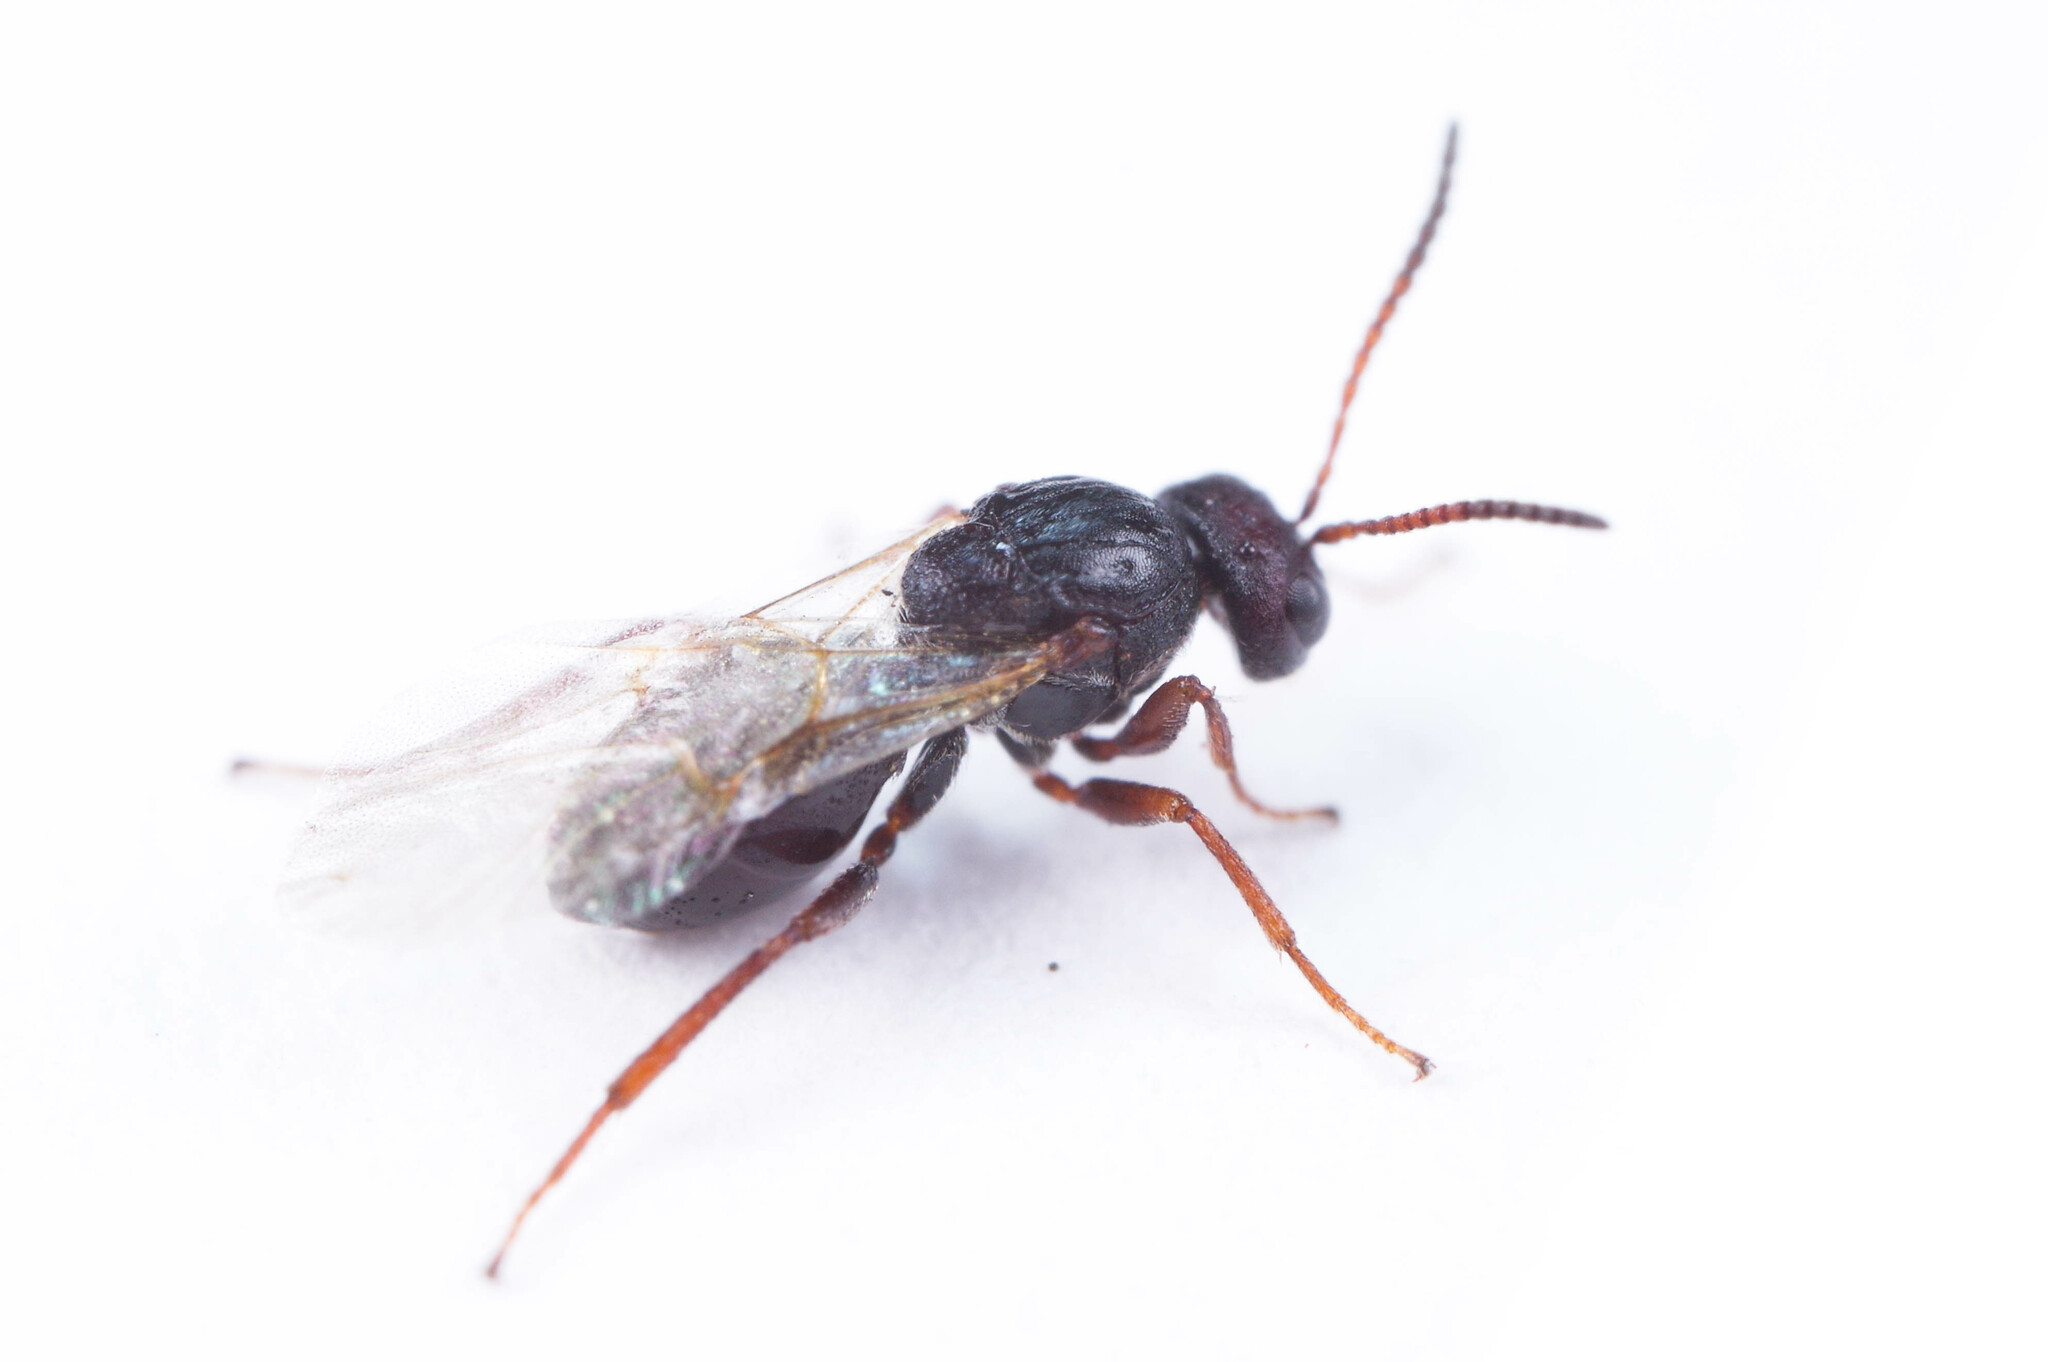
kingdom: Animalia
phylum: Arthropoda
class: Insecta
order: Hymenoptera
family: Cynipidae
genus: Bassettia
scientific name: Bassettia
